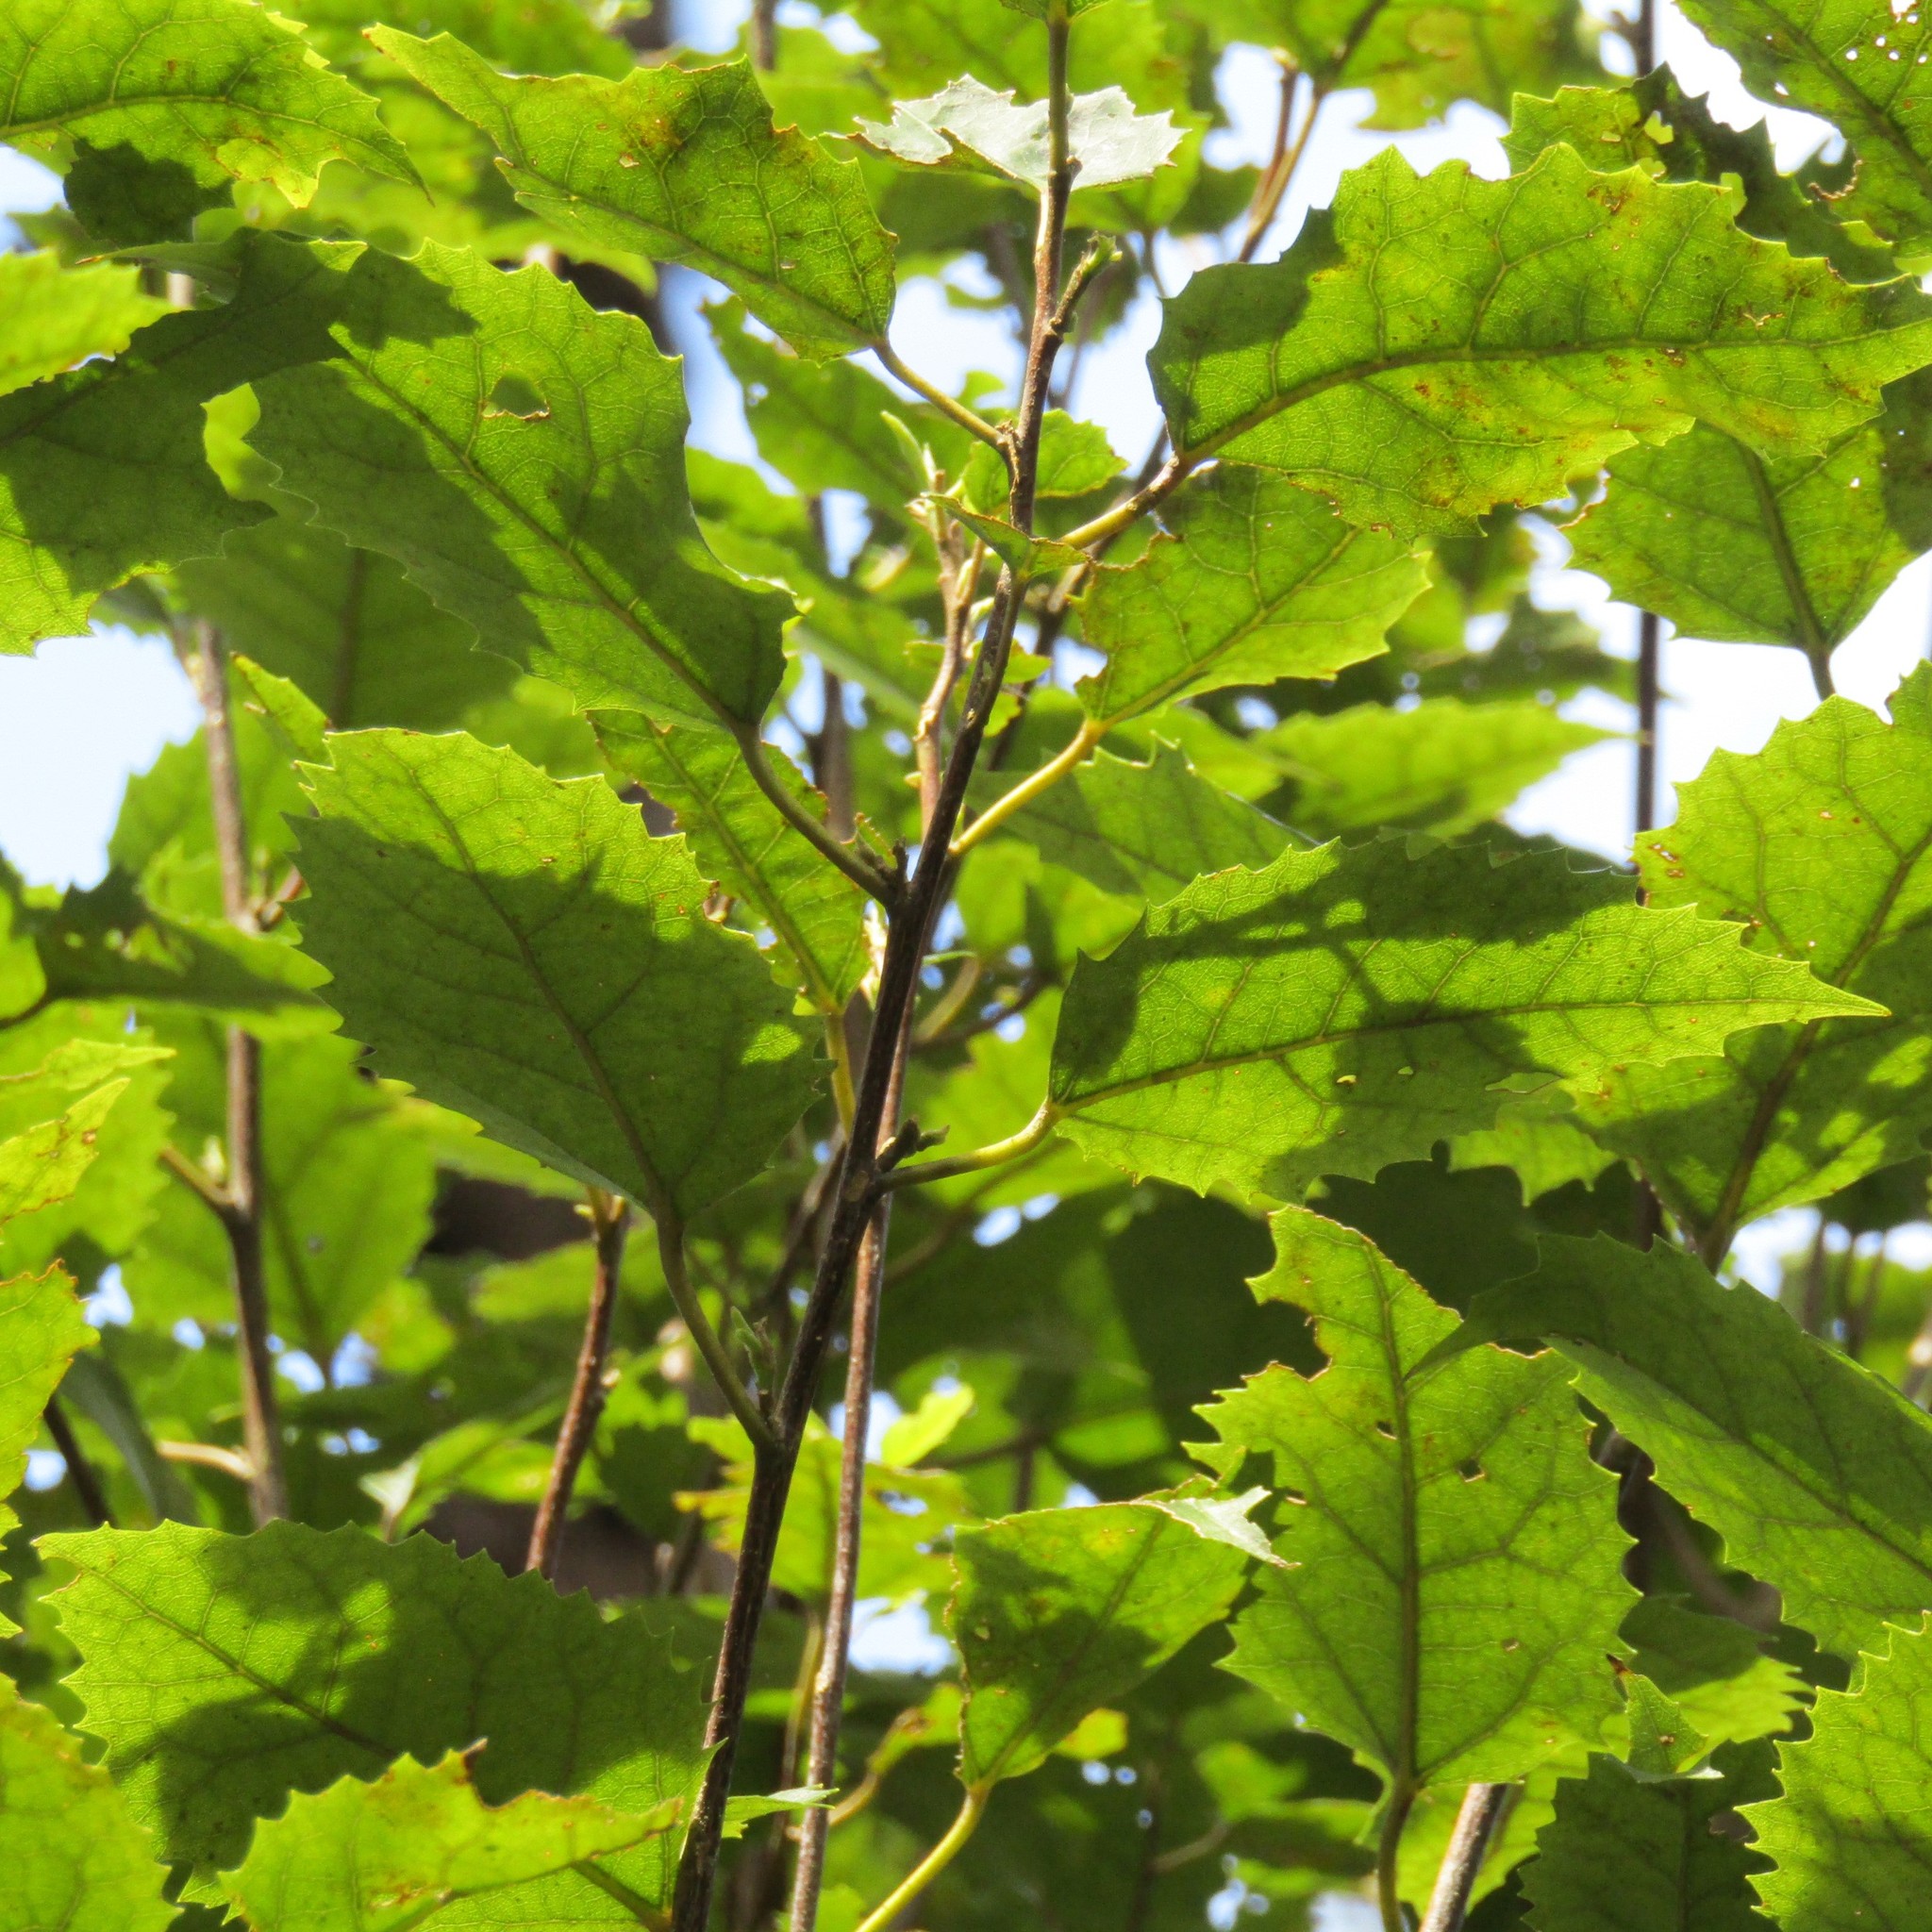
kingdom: Plantae
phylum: Tracheophyta
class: Magnoliopsida
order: Malvales
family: Malvaceae
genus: Hoheria
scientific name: Hoheria populnea
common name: Lacebark
